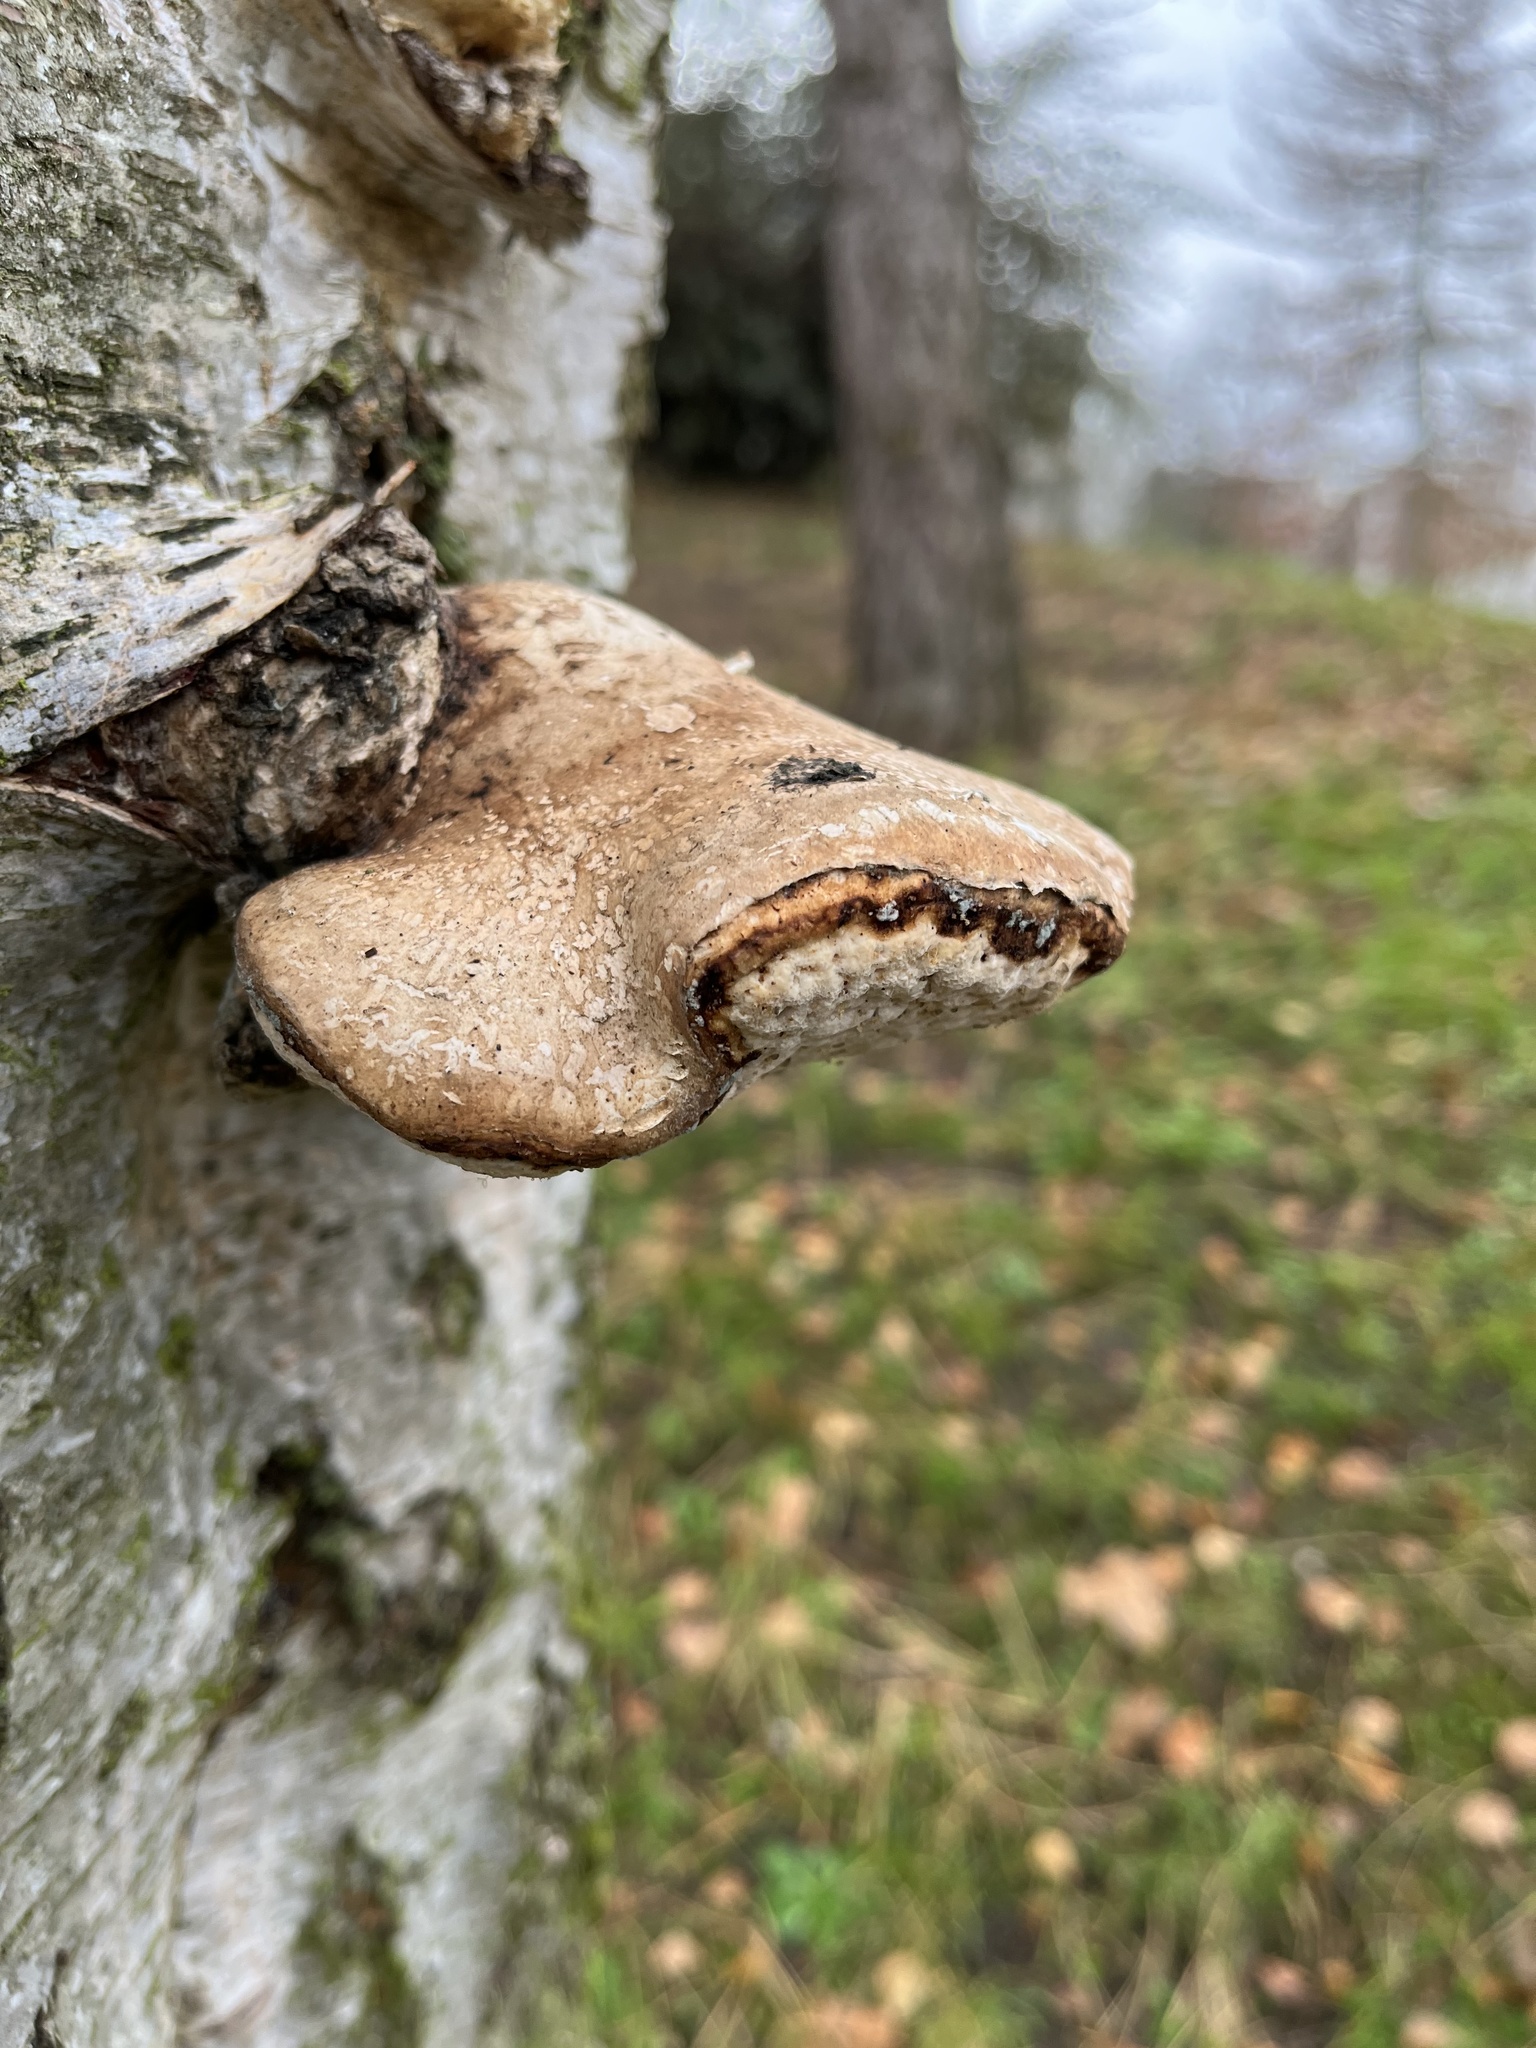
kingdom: Fungi
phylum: Basidiomycota
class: Agaricomycetes
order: Polyporales
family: Fomitopsidaceae
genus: Fomitopsis
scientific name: Fomitopsis betulina
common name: Birch polypore
